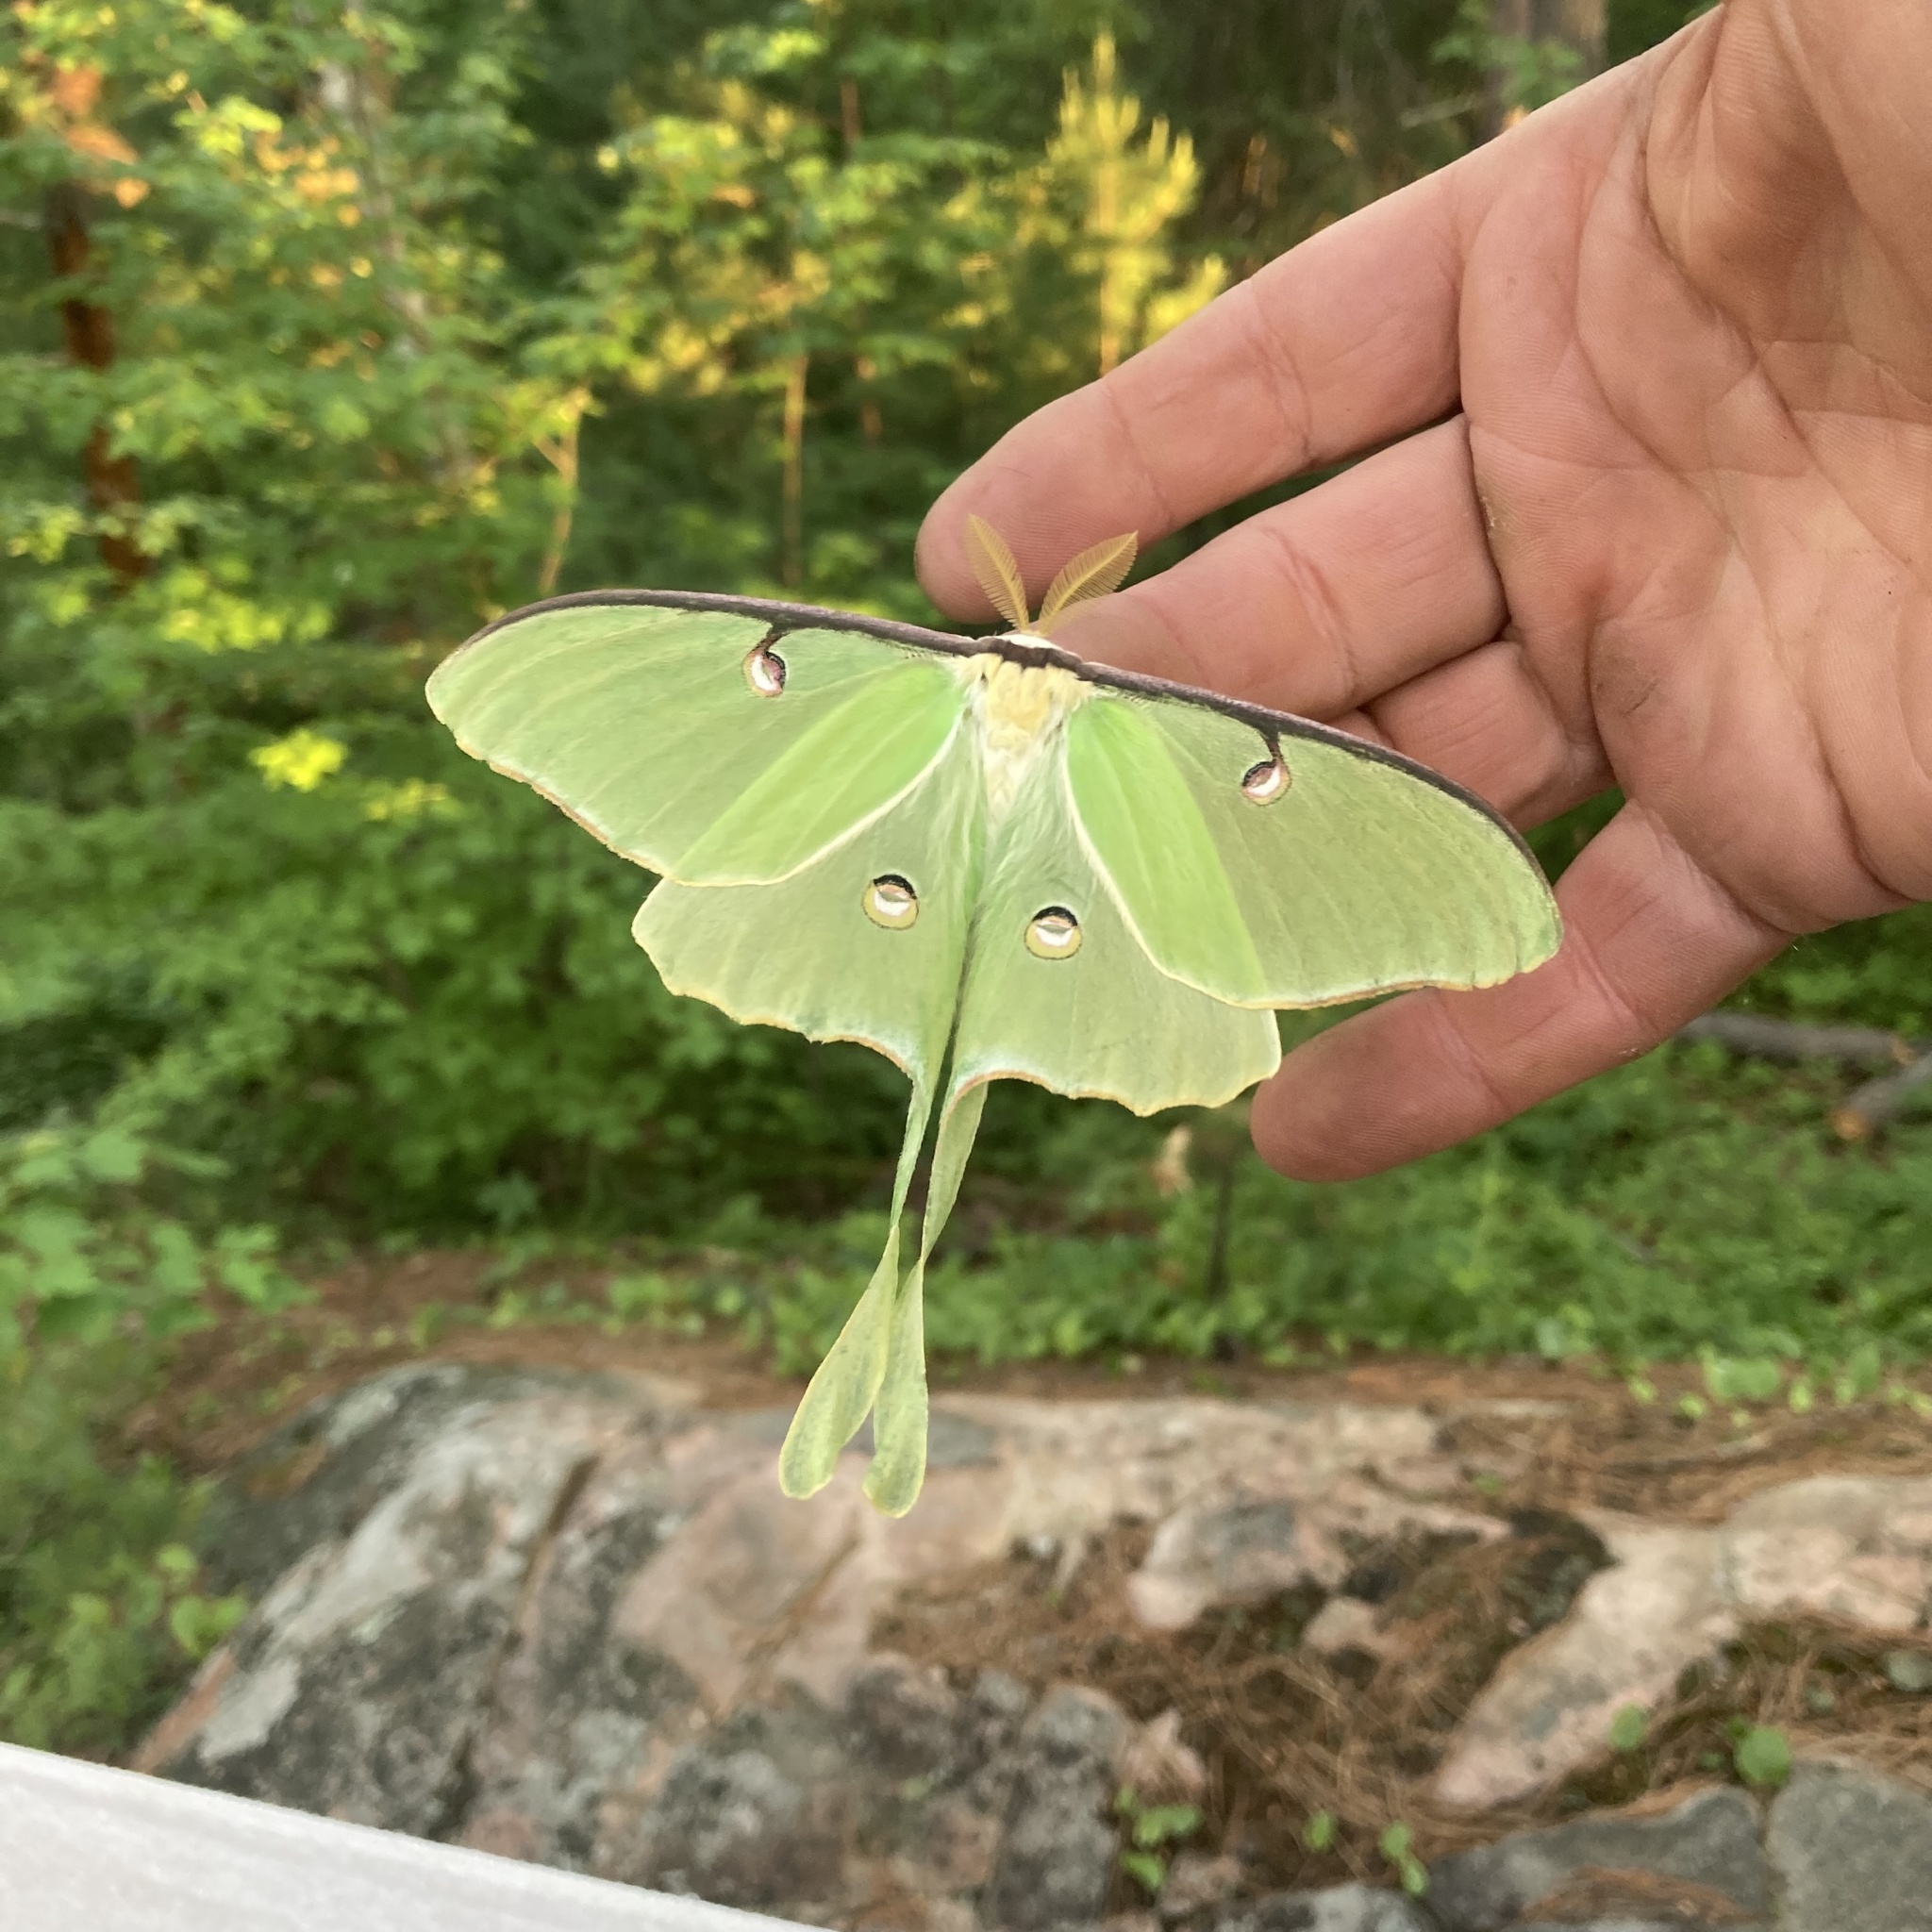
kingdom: Animalia
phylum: Arthropoda
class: Insecta
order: Lepidoptera
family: Saturniidae
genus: Actias
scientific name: Actias luna
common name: Luna moth
